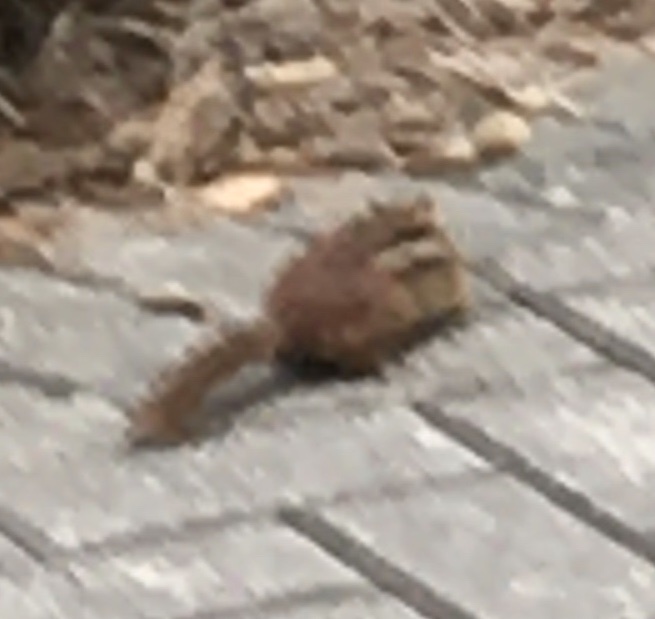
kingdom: Animalia
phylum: Chordata
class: Mammalia
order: Rodentia
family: Sciuridae
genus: Tamias
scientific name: Tamias striatus
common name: Eastern chipmunk
